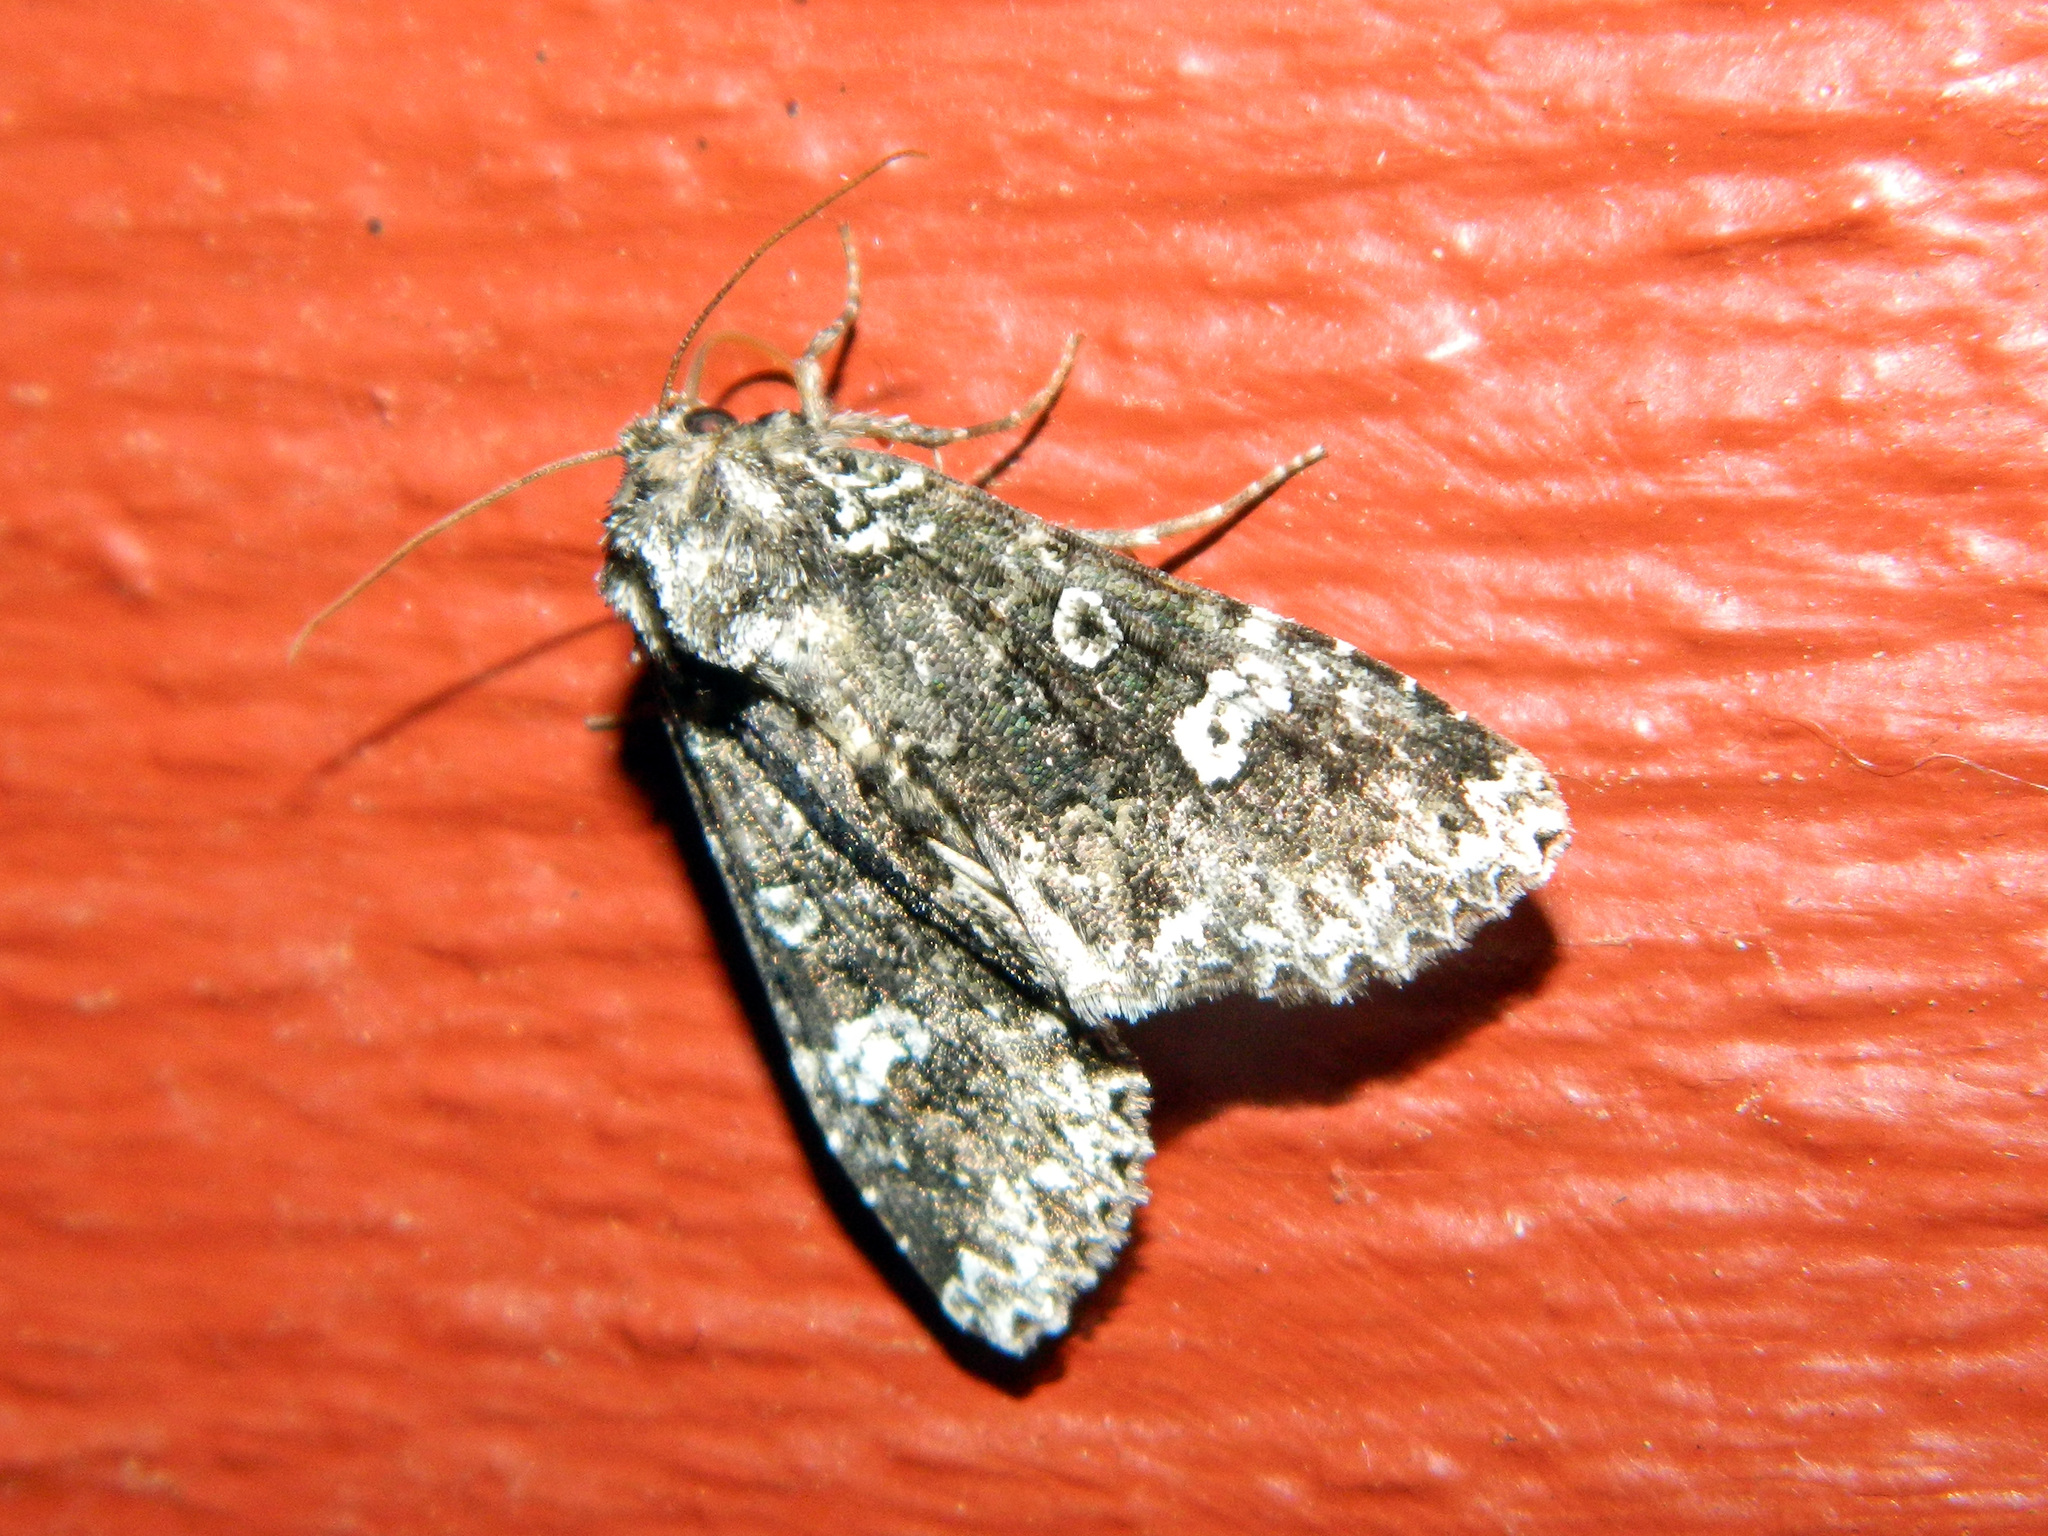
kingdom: Animalia
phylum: Arthropoda
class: Insecta
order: Lepidoptera
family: Noctuidae
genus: Melanchra
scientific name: Melanchra adjuncta
